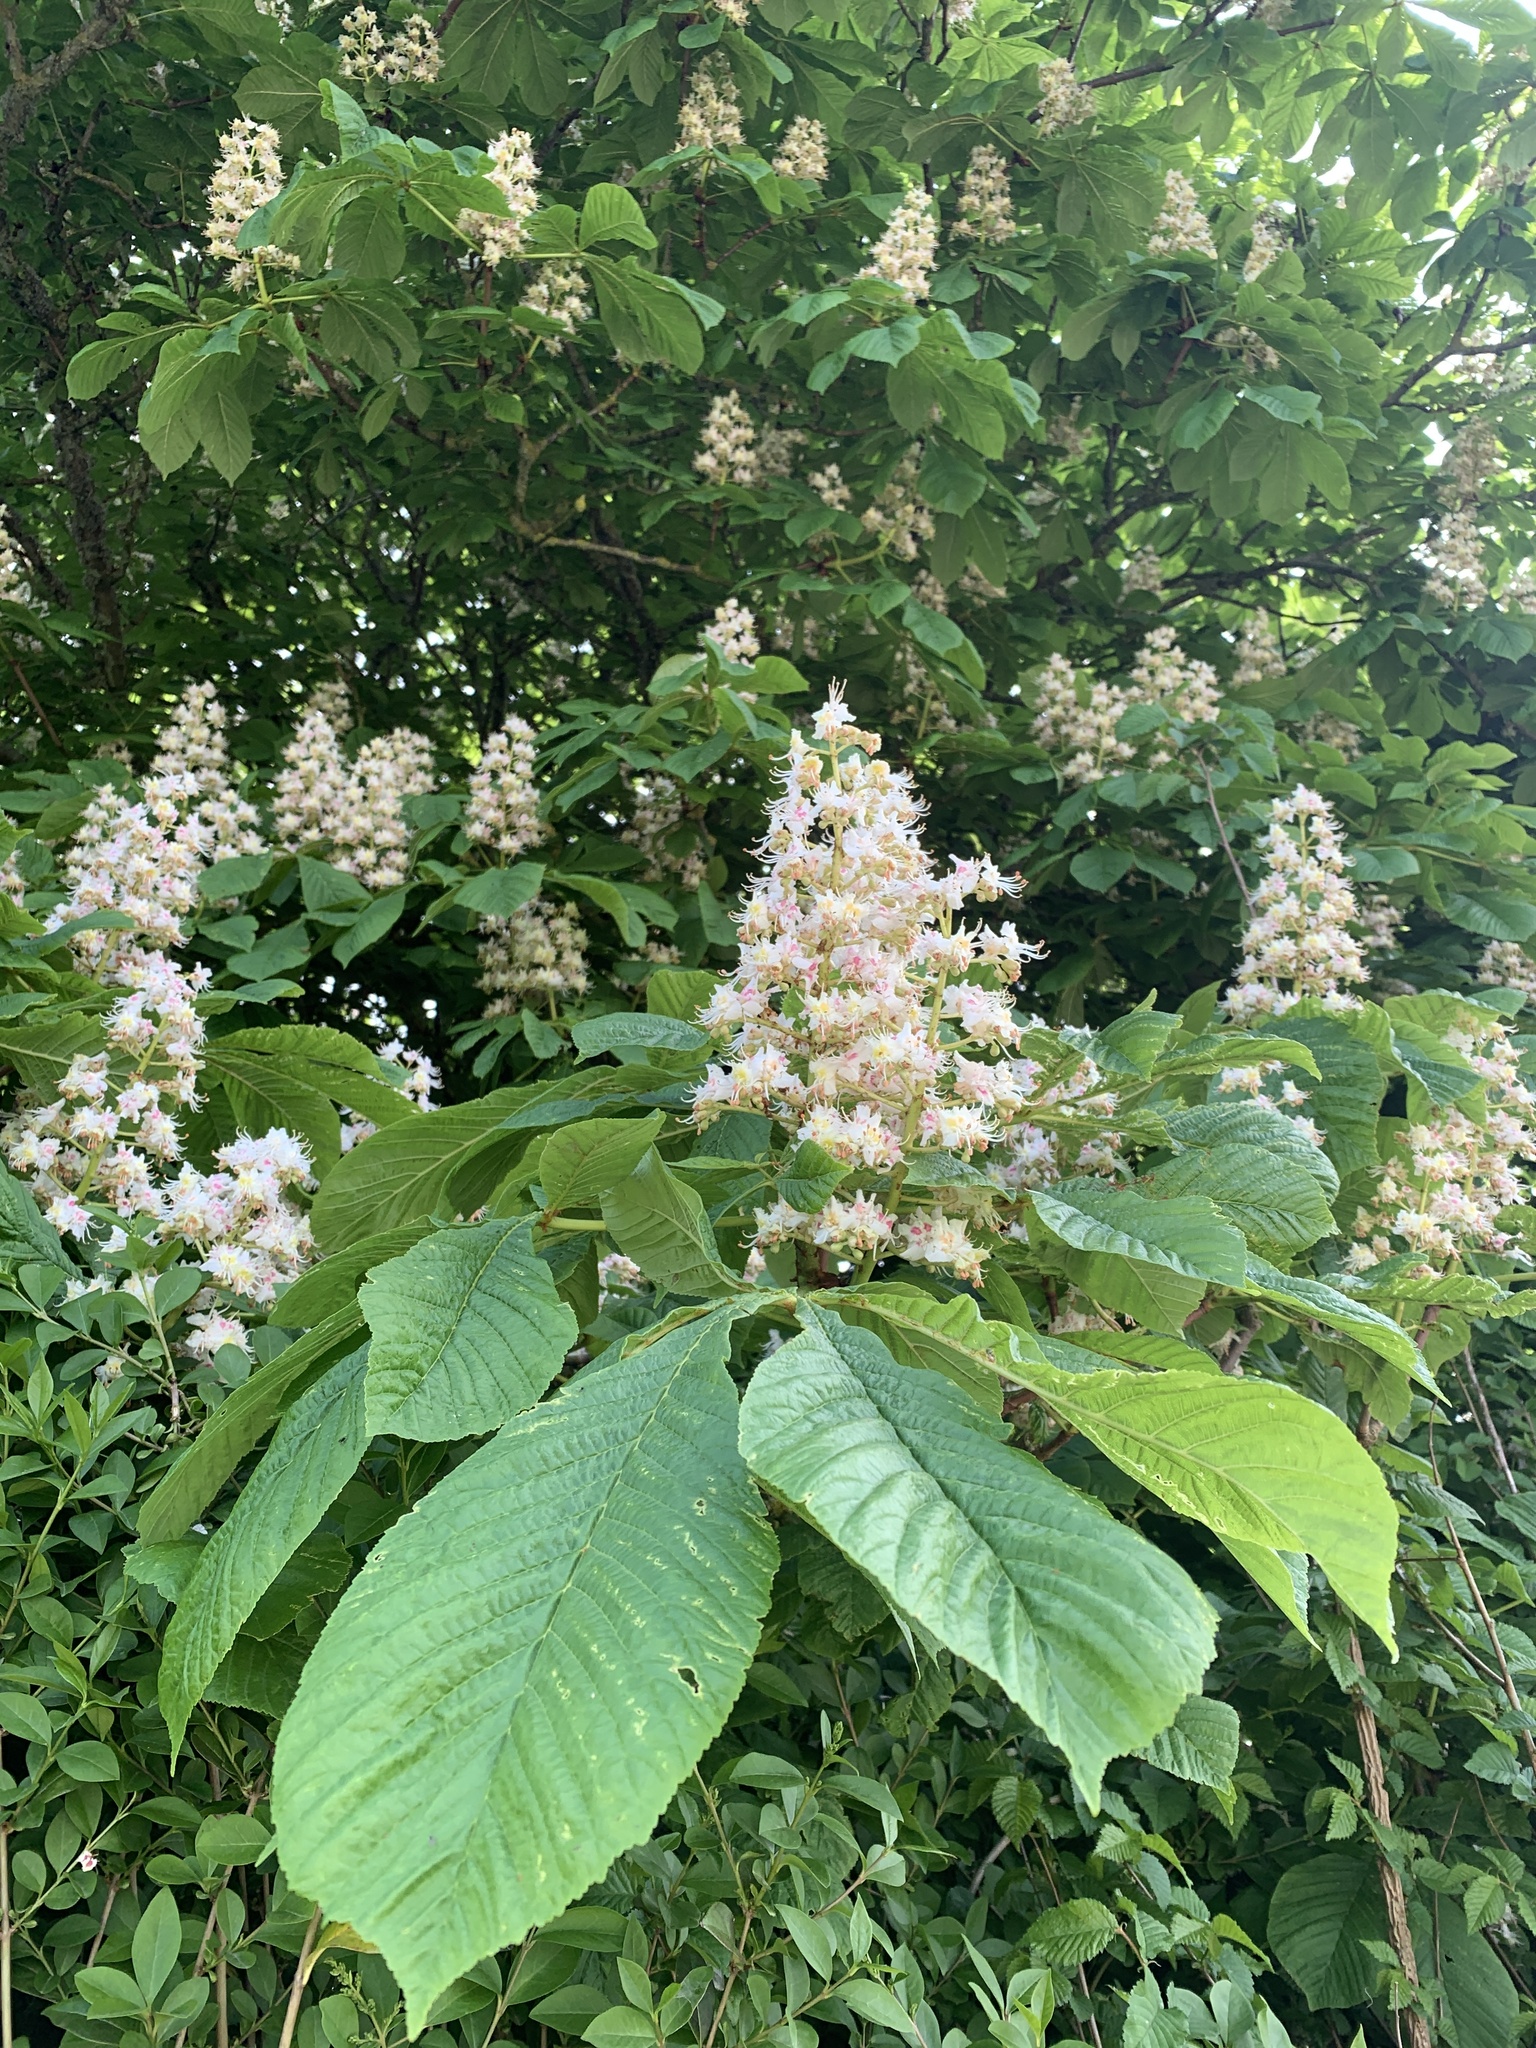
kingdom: Plantae
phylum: Tracheophyta
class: Magnoliopsida
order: Sapindales
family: Sapindaceae
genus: Aesculus
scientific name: Aesculus hippocastanum
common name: Horse-chestnut
